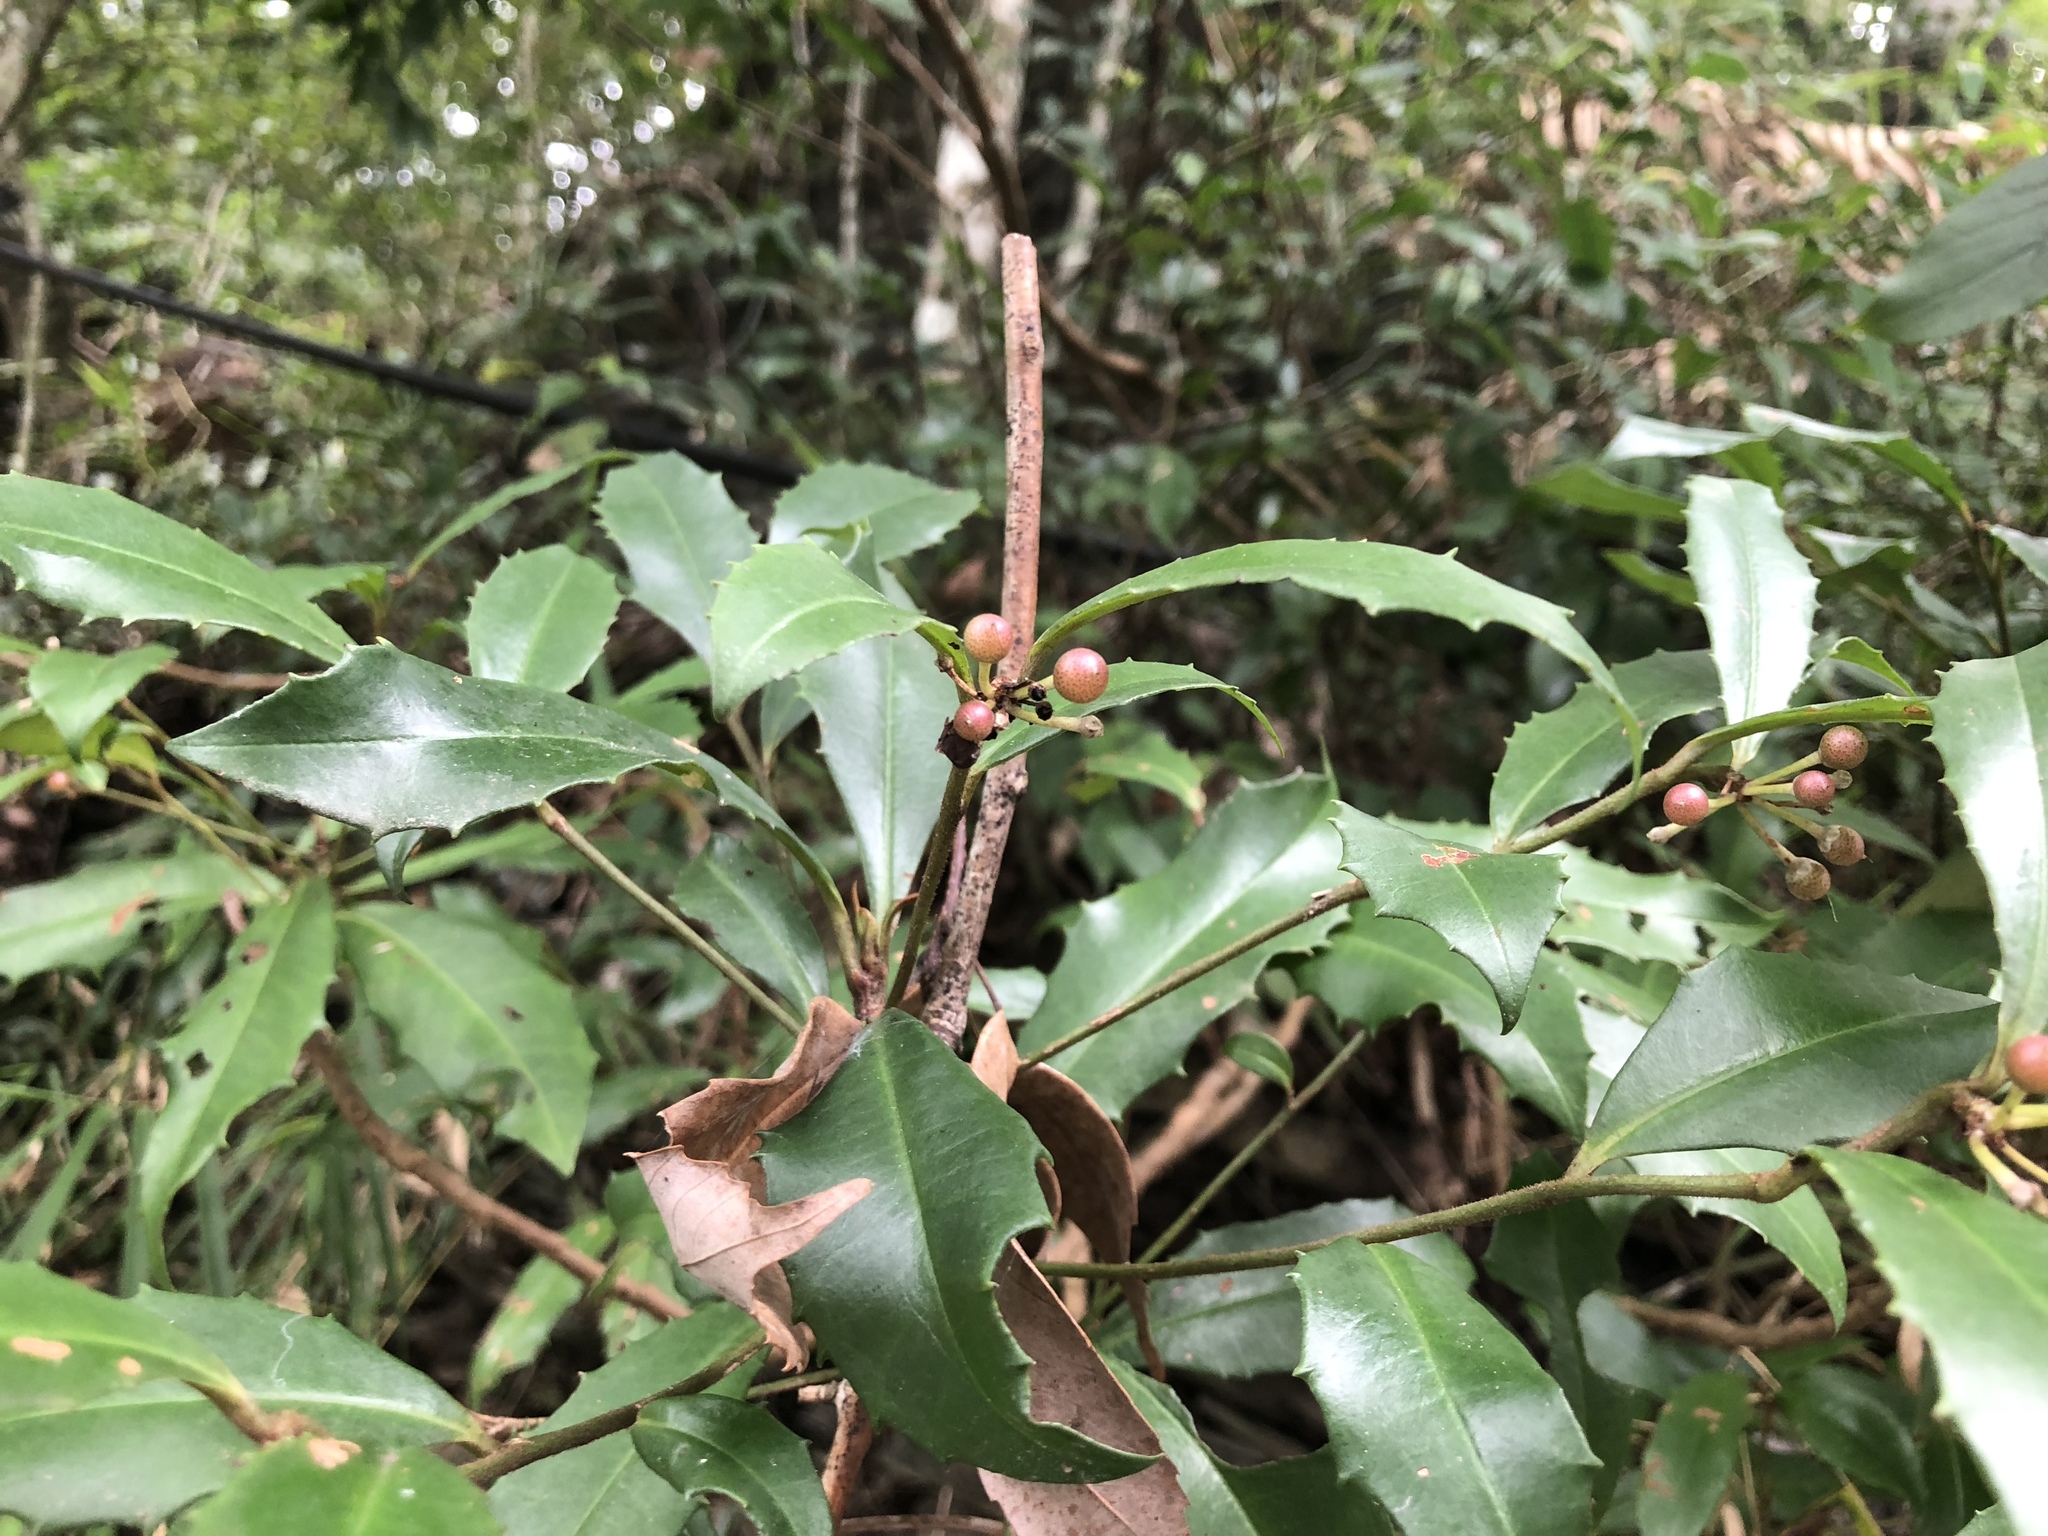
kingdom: Plantae
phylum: Tracheophyta
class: Magnoliopsida
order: Ericales
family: Primulaceae
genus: Ardisia
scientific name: Ardisia cornudentata
